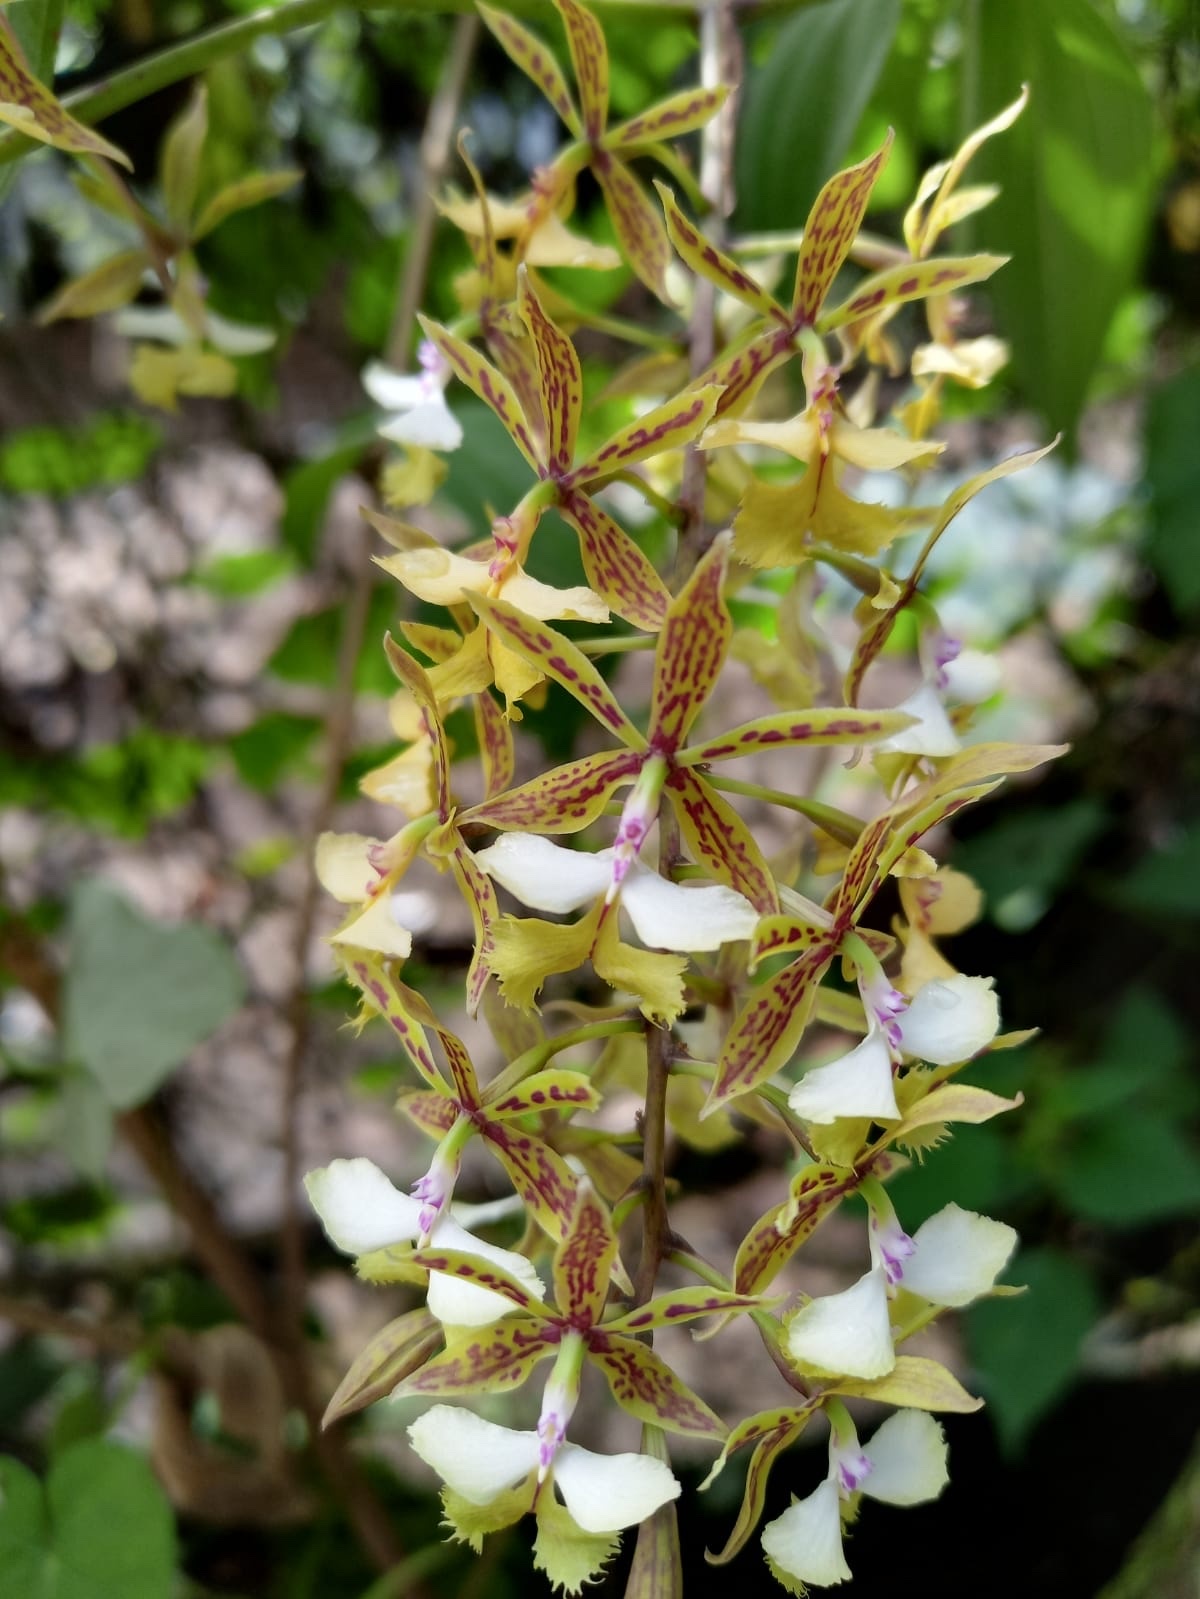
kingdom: Plantae
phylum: Tracheophyta
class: Liliopsida
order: Asparagales
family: Orchidaceae
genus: Epidendrum
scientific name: Epidendrum stamfordianum
